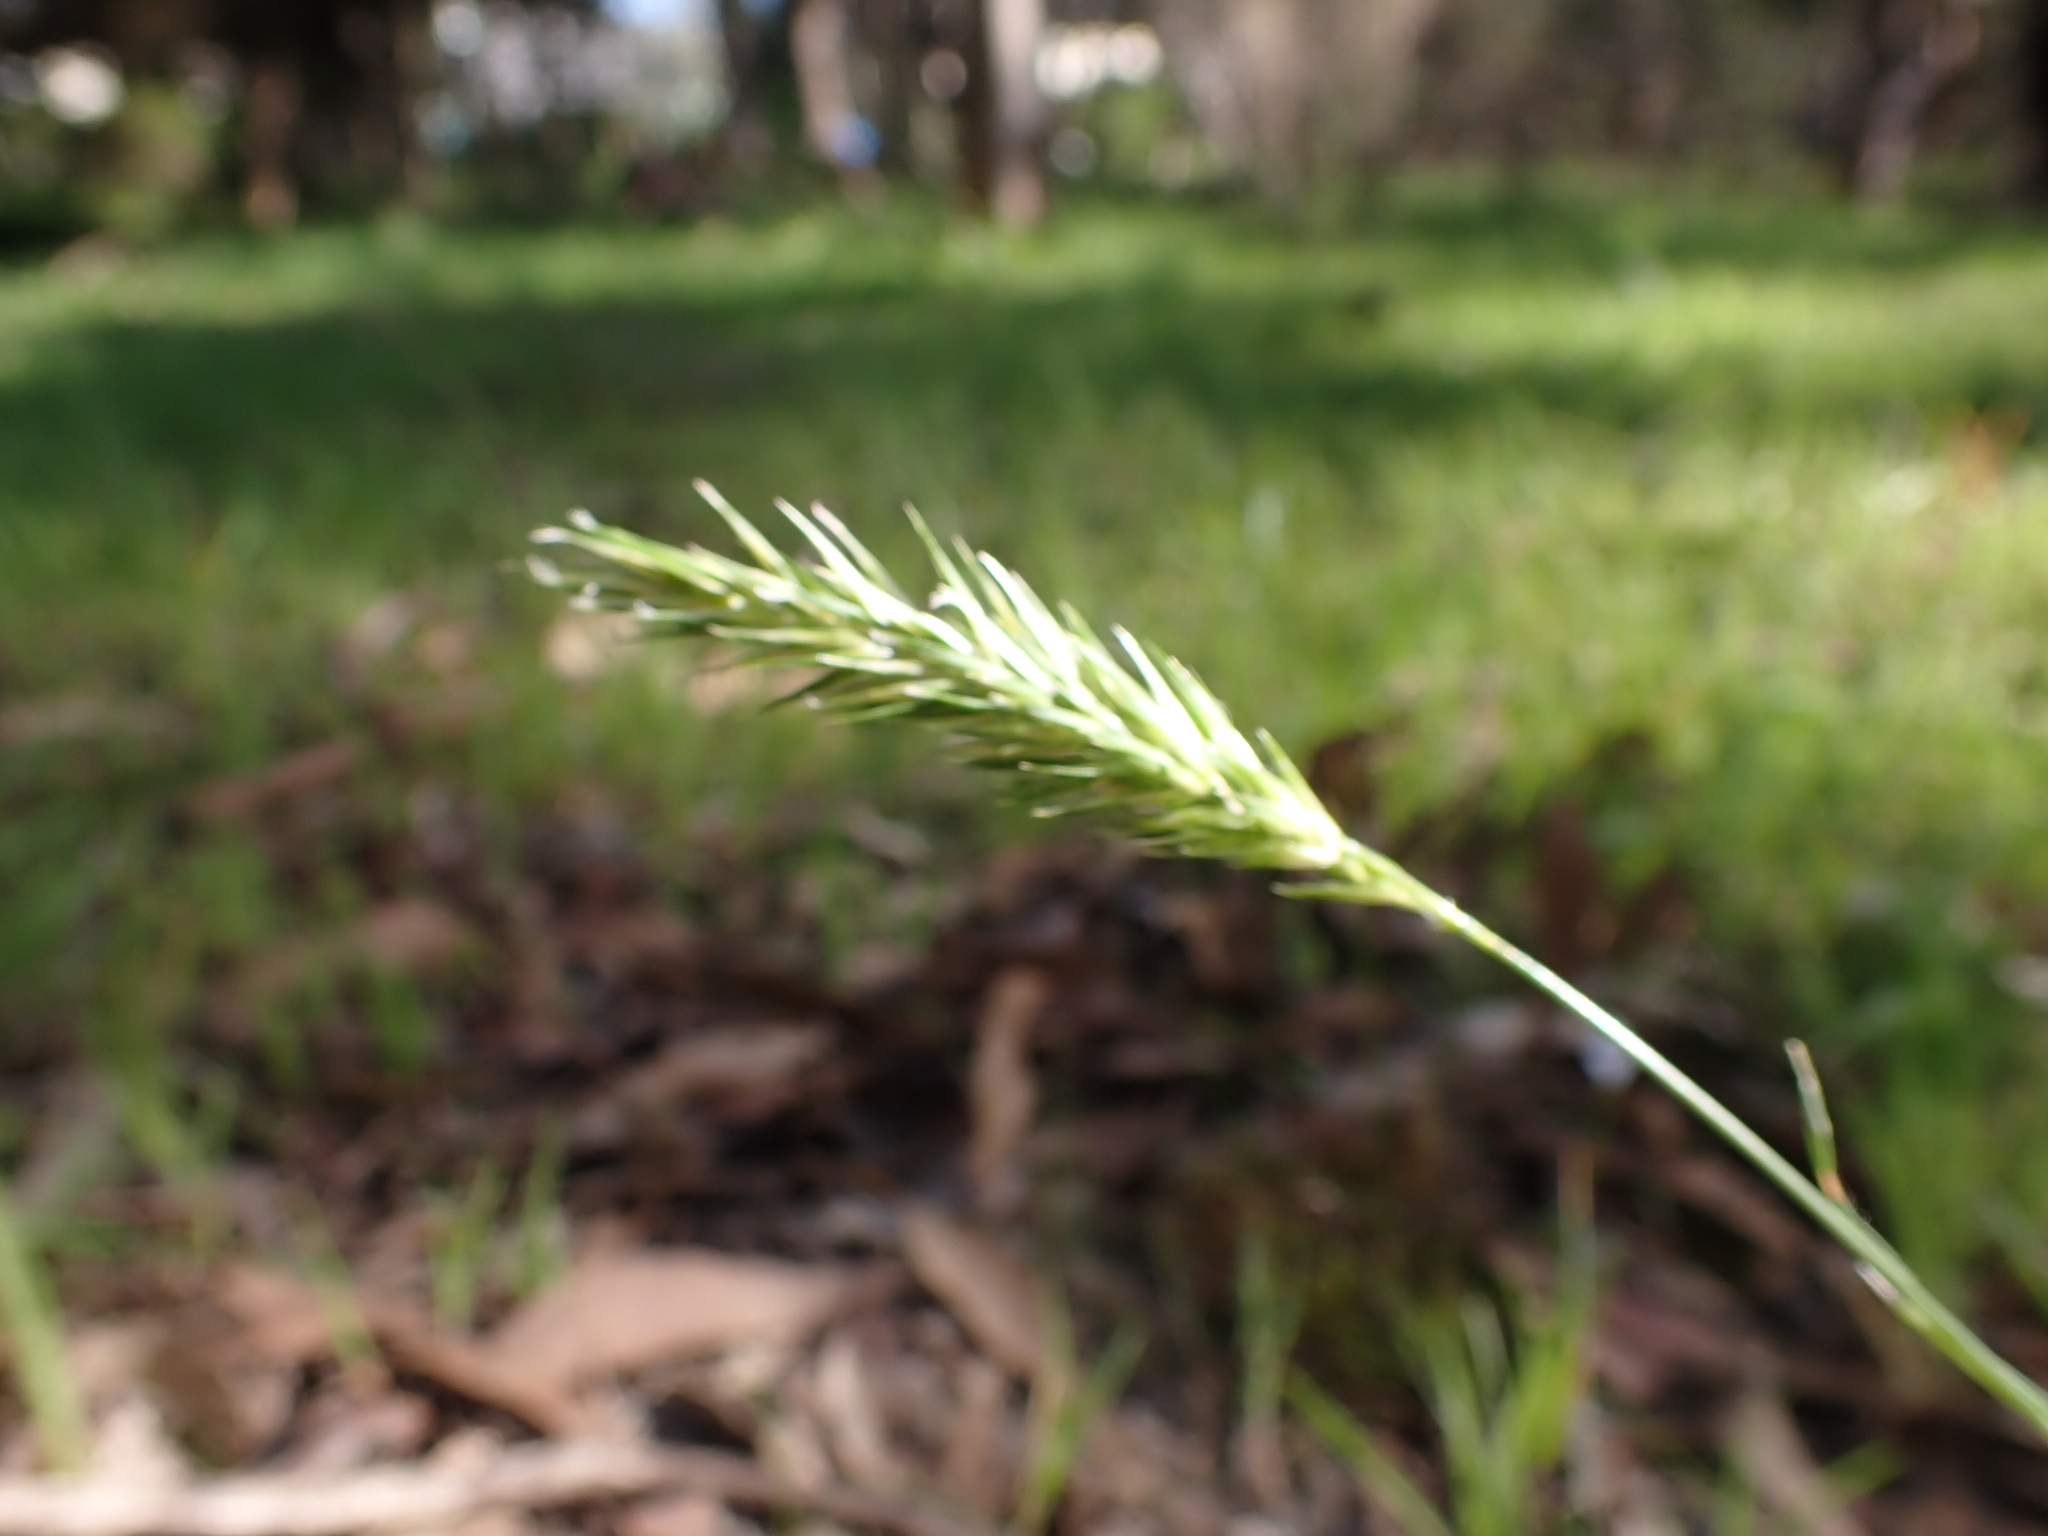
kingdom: Plantae
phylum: Tracheophyta
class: Liliopsida
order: Poales
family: Poaceae
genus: Anthoxanthum
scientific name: Anthoxanthum odoratum
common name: Sweet vernalgrass
